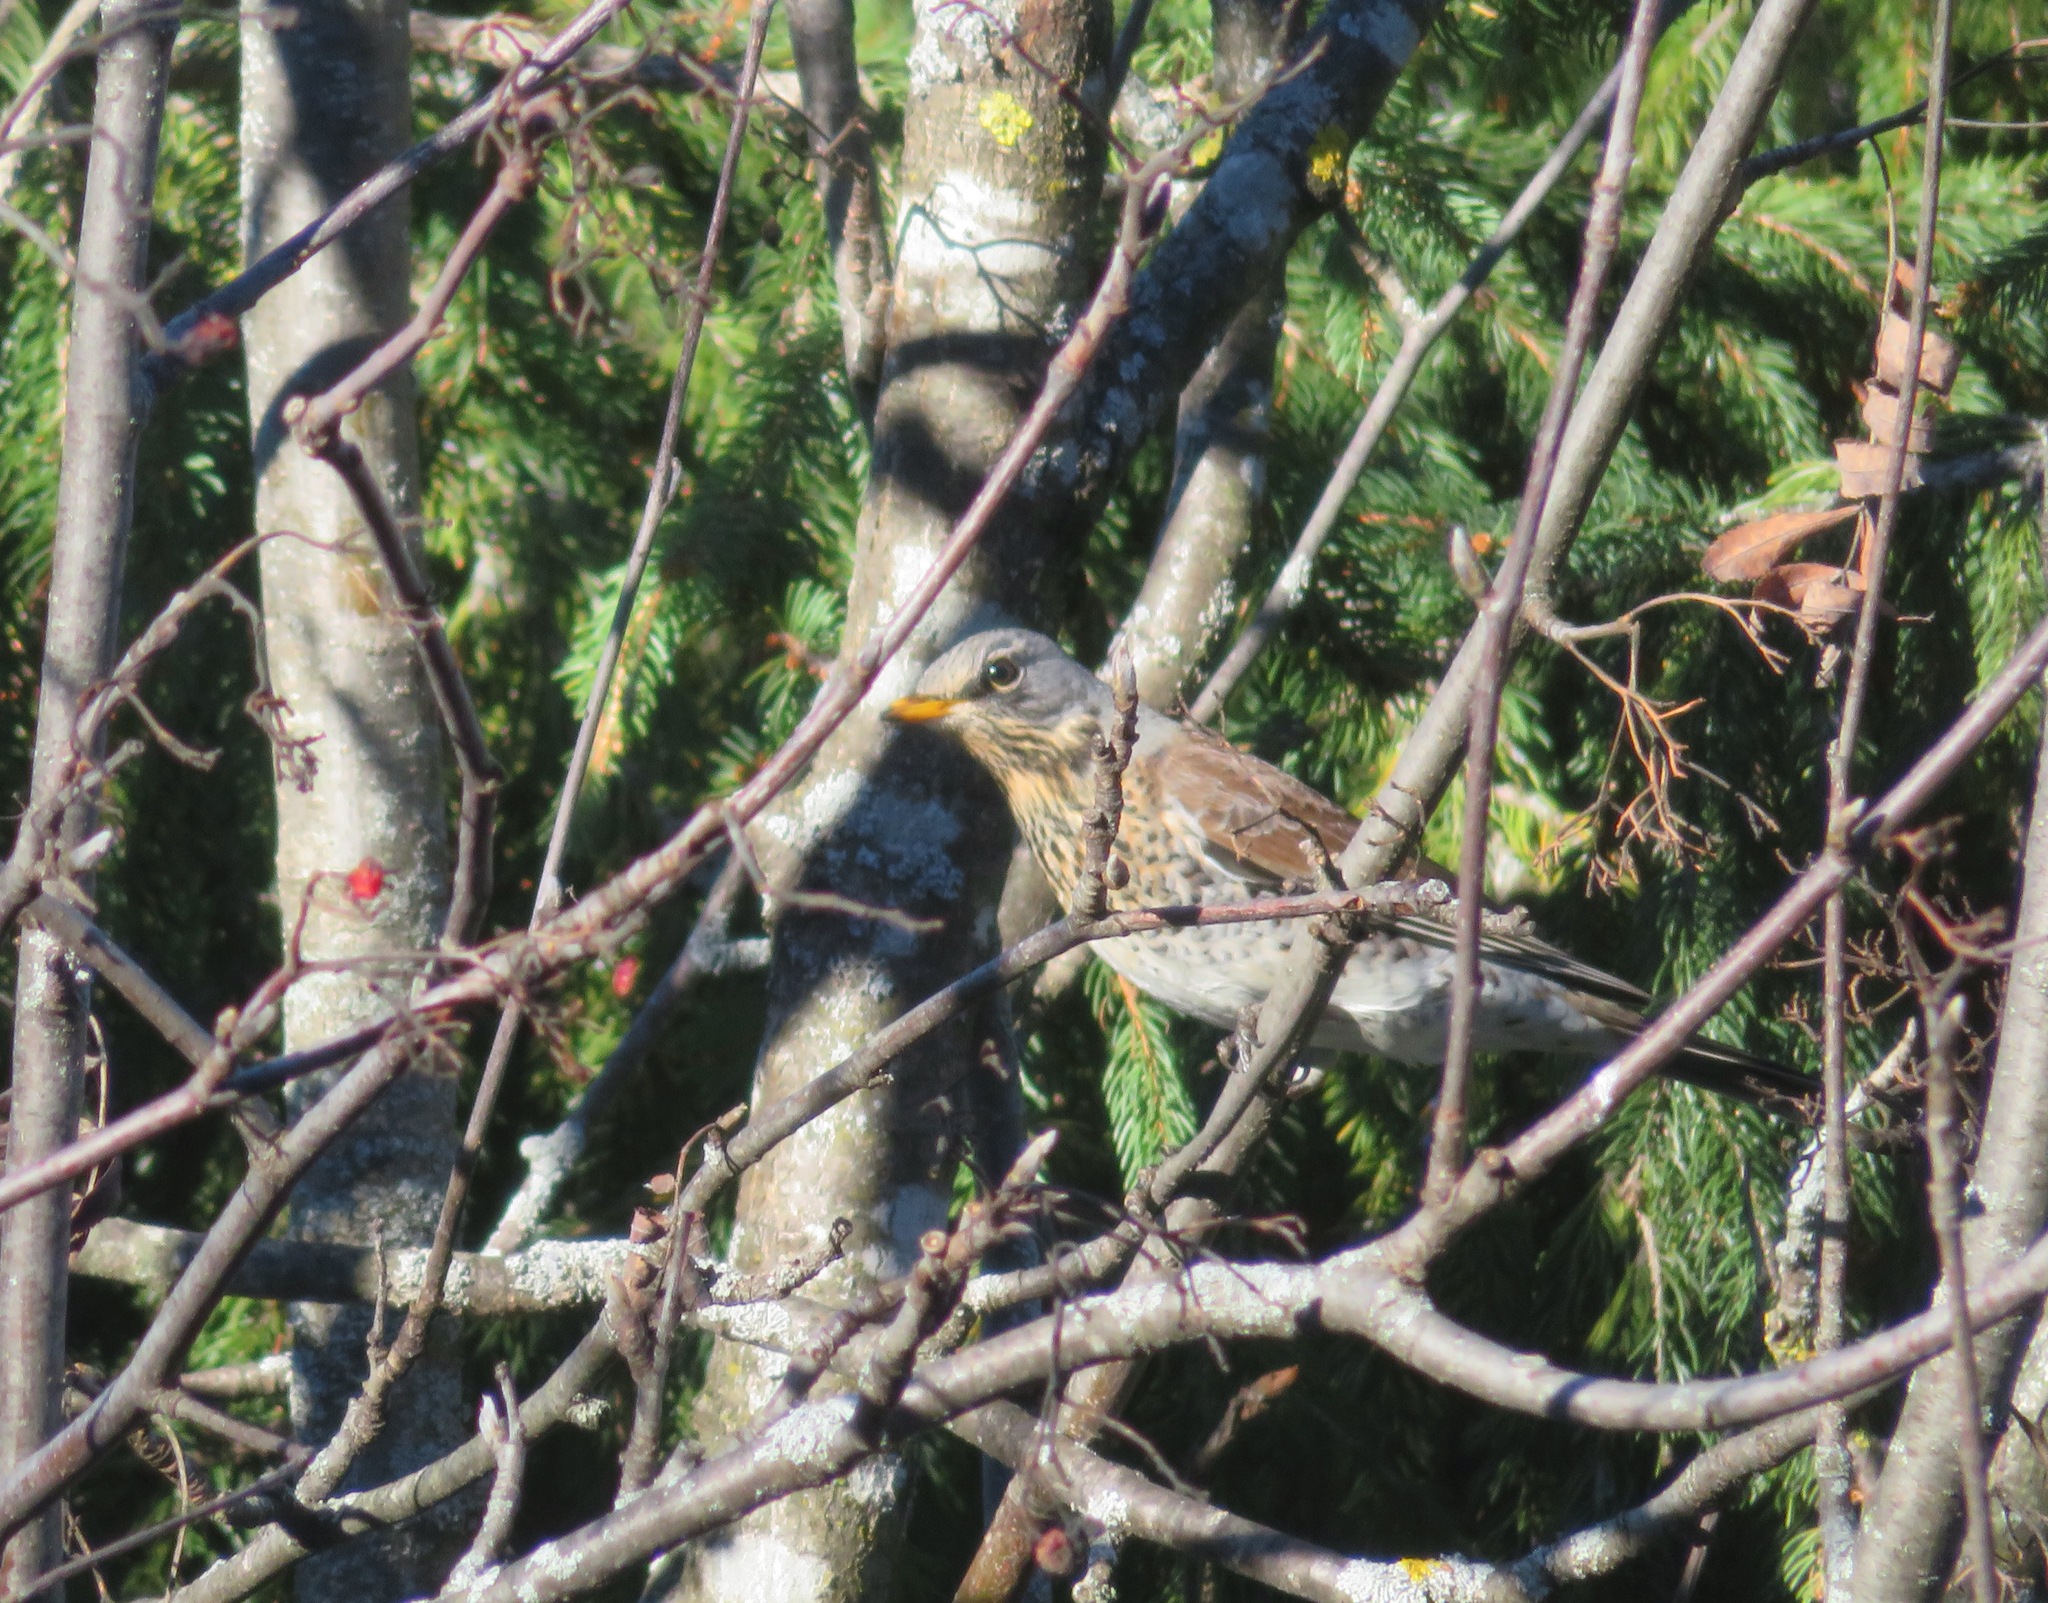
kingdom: Animalia
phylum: Chordata
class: Aves
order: Passeriformes
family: Turdidae
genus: Turdus
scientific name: Turdus pilaris
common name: Fieldfare
